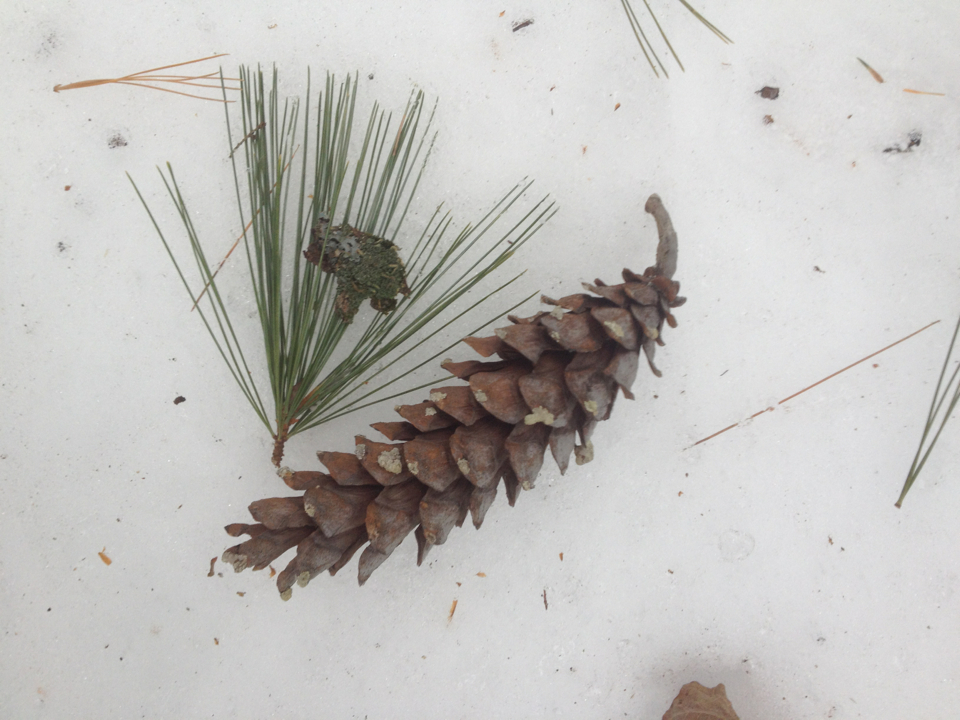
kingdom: Plantae
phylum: Tracheophyta
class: Pinopsida
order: Pinales
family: Pinaceae
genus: Pinus
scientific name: Pinus strobus
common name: Weymouth pine
